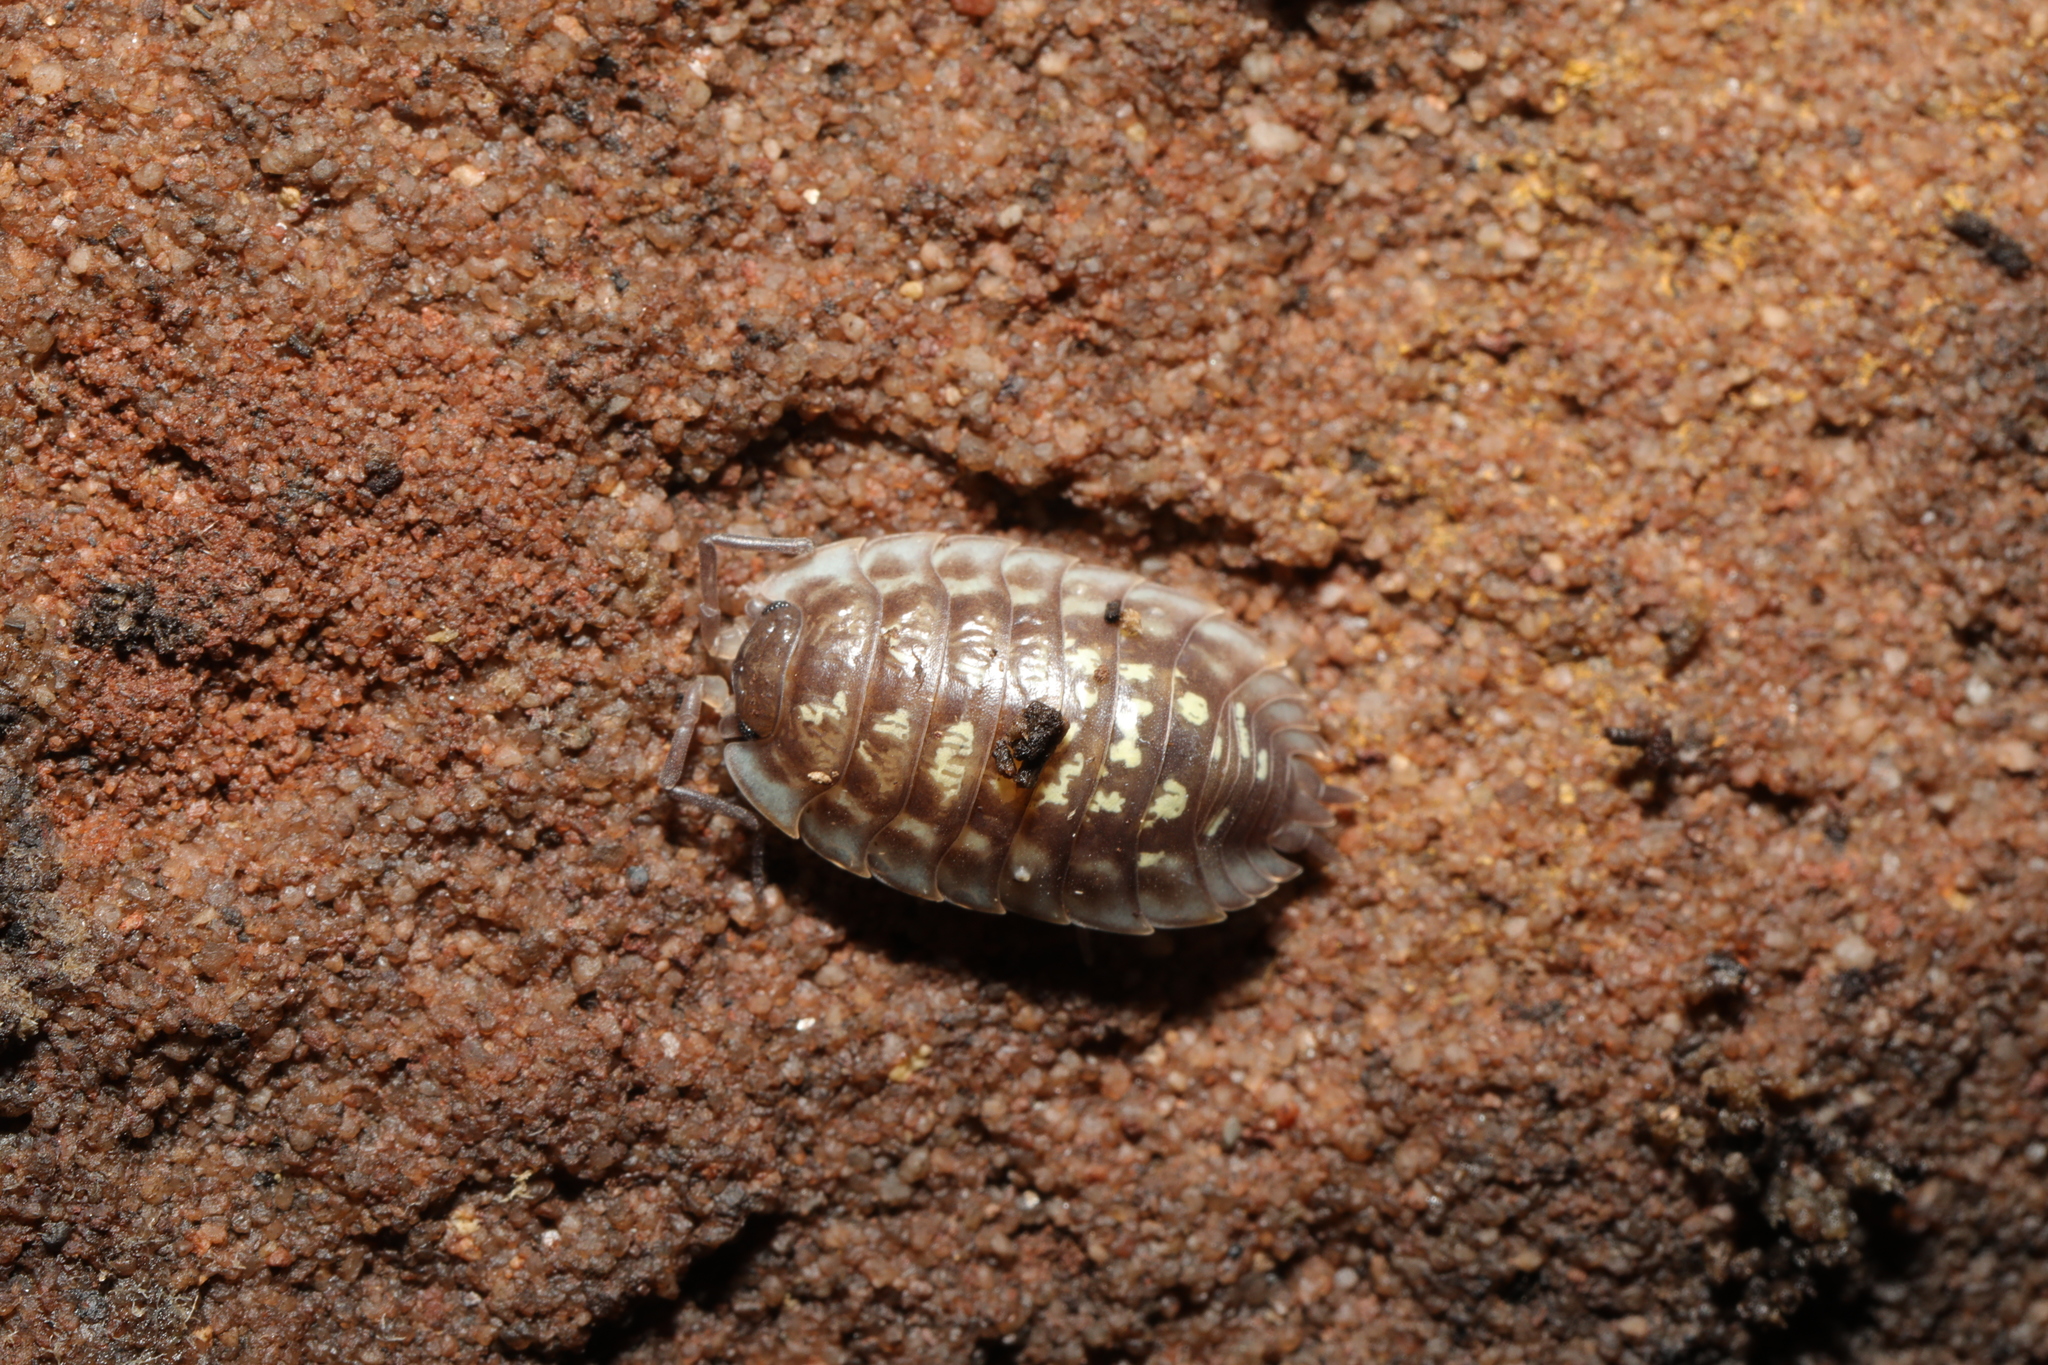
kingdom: Animalia
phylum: Arthropoda
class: Malacostraca
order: Isopoda
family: Oniscidae
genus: Oniscus
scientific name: Oniscus asellus
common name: Common shiny woodlouse
